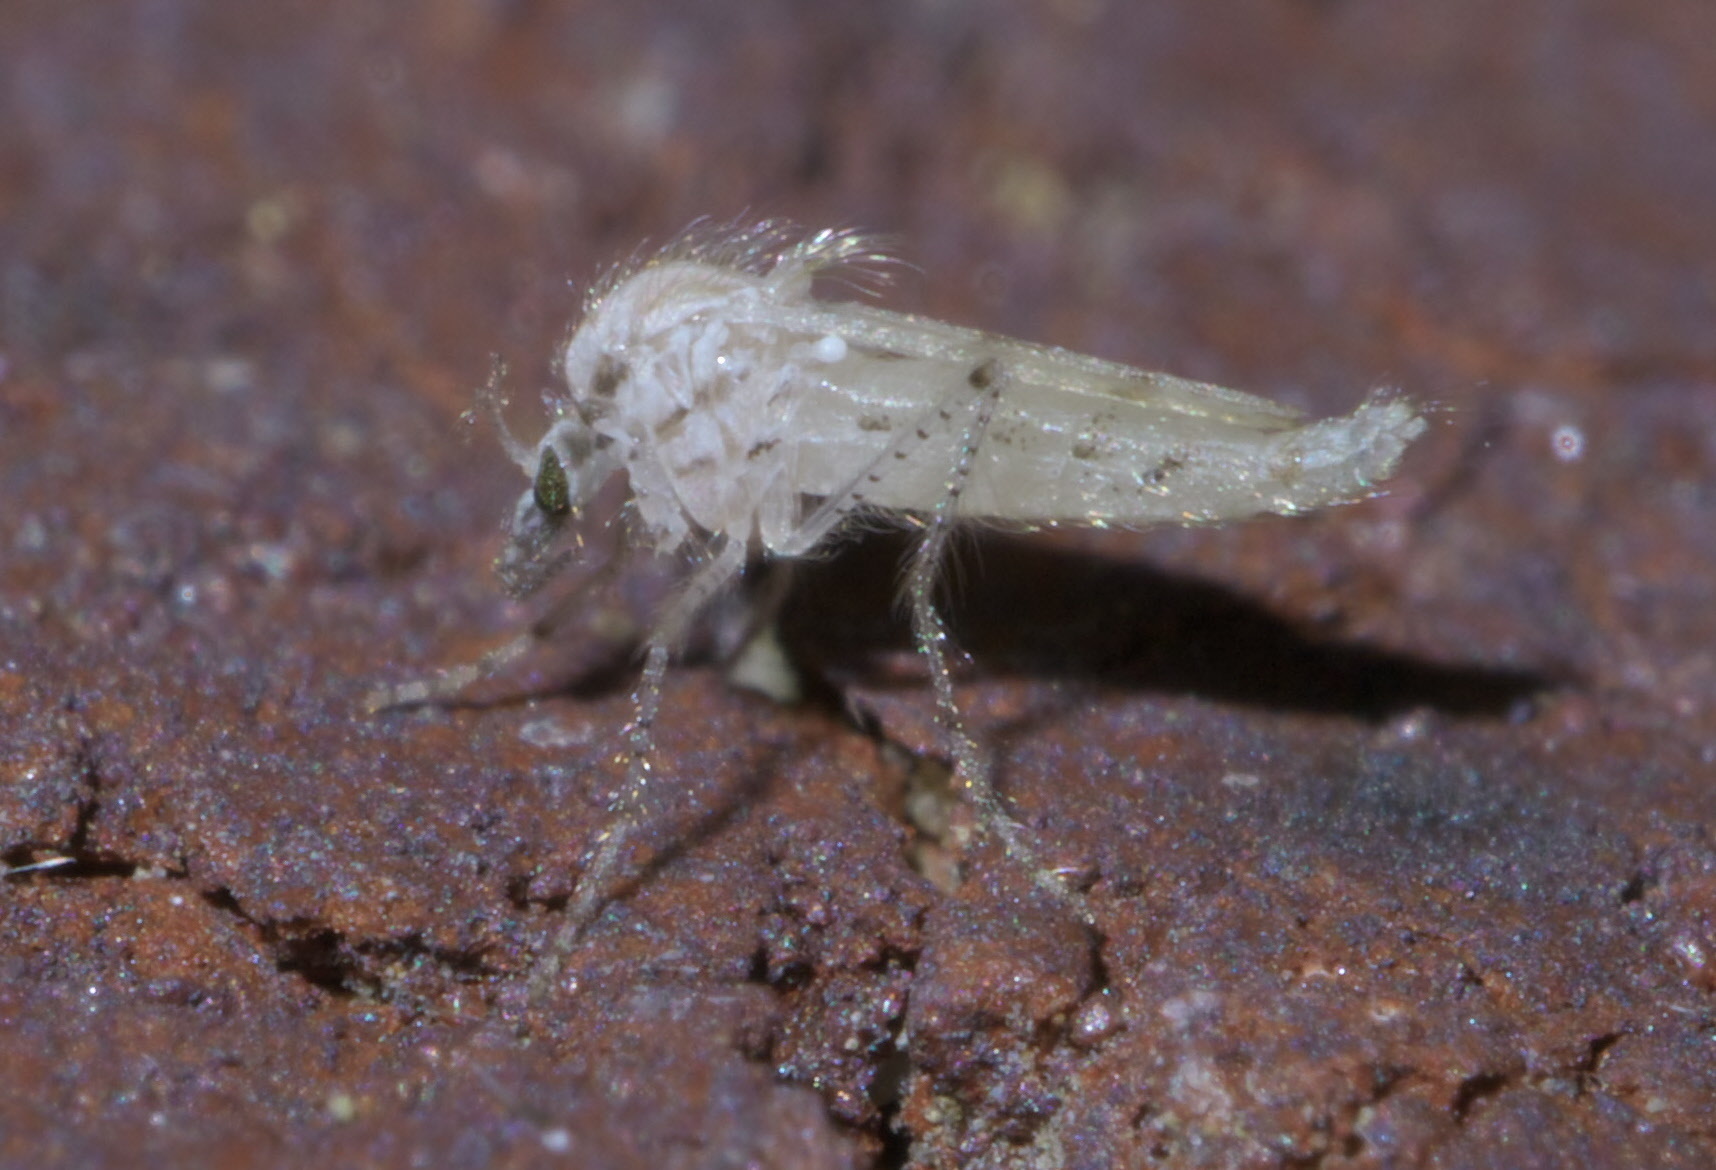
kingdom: Animalia
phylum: Arthropoda
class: Insecta
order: Diptera
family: Chaoboridae
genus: Chaoborus
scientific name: Chaoborus maculipes
